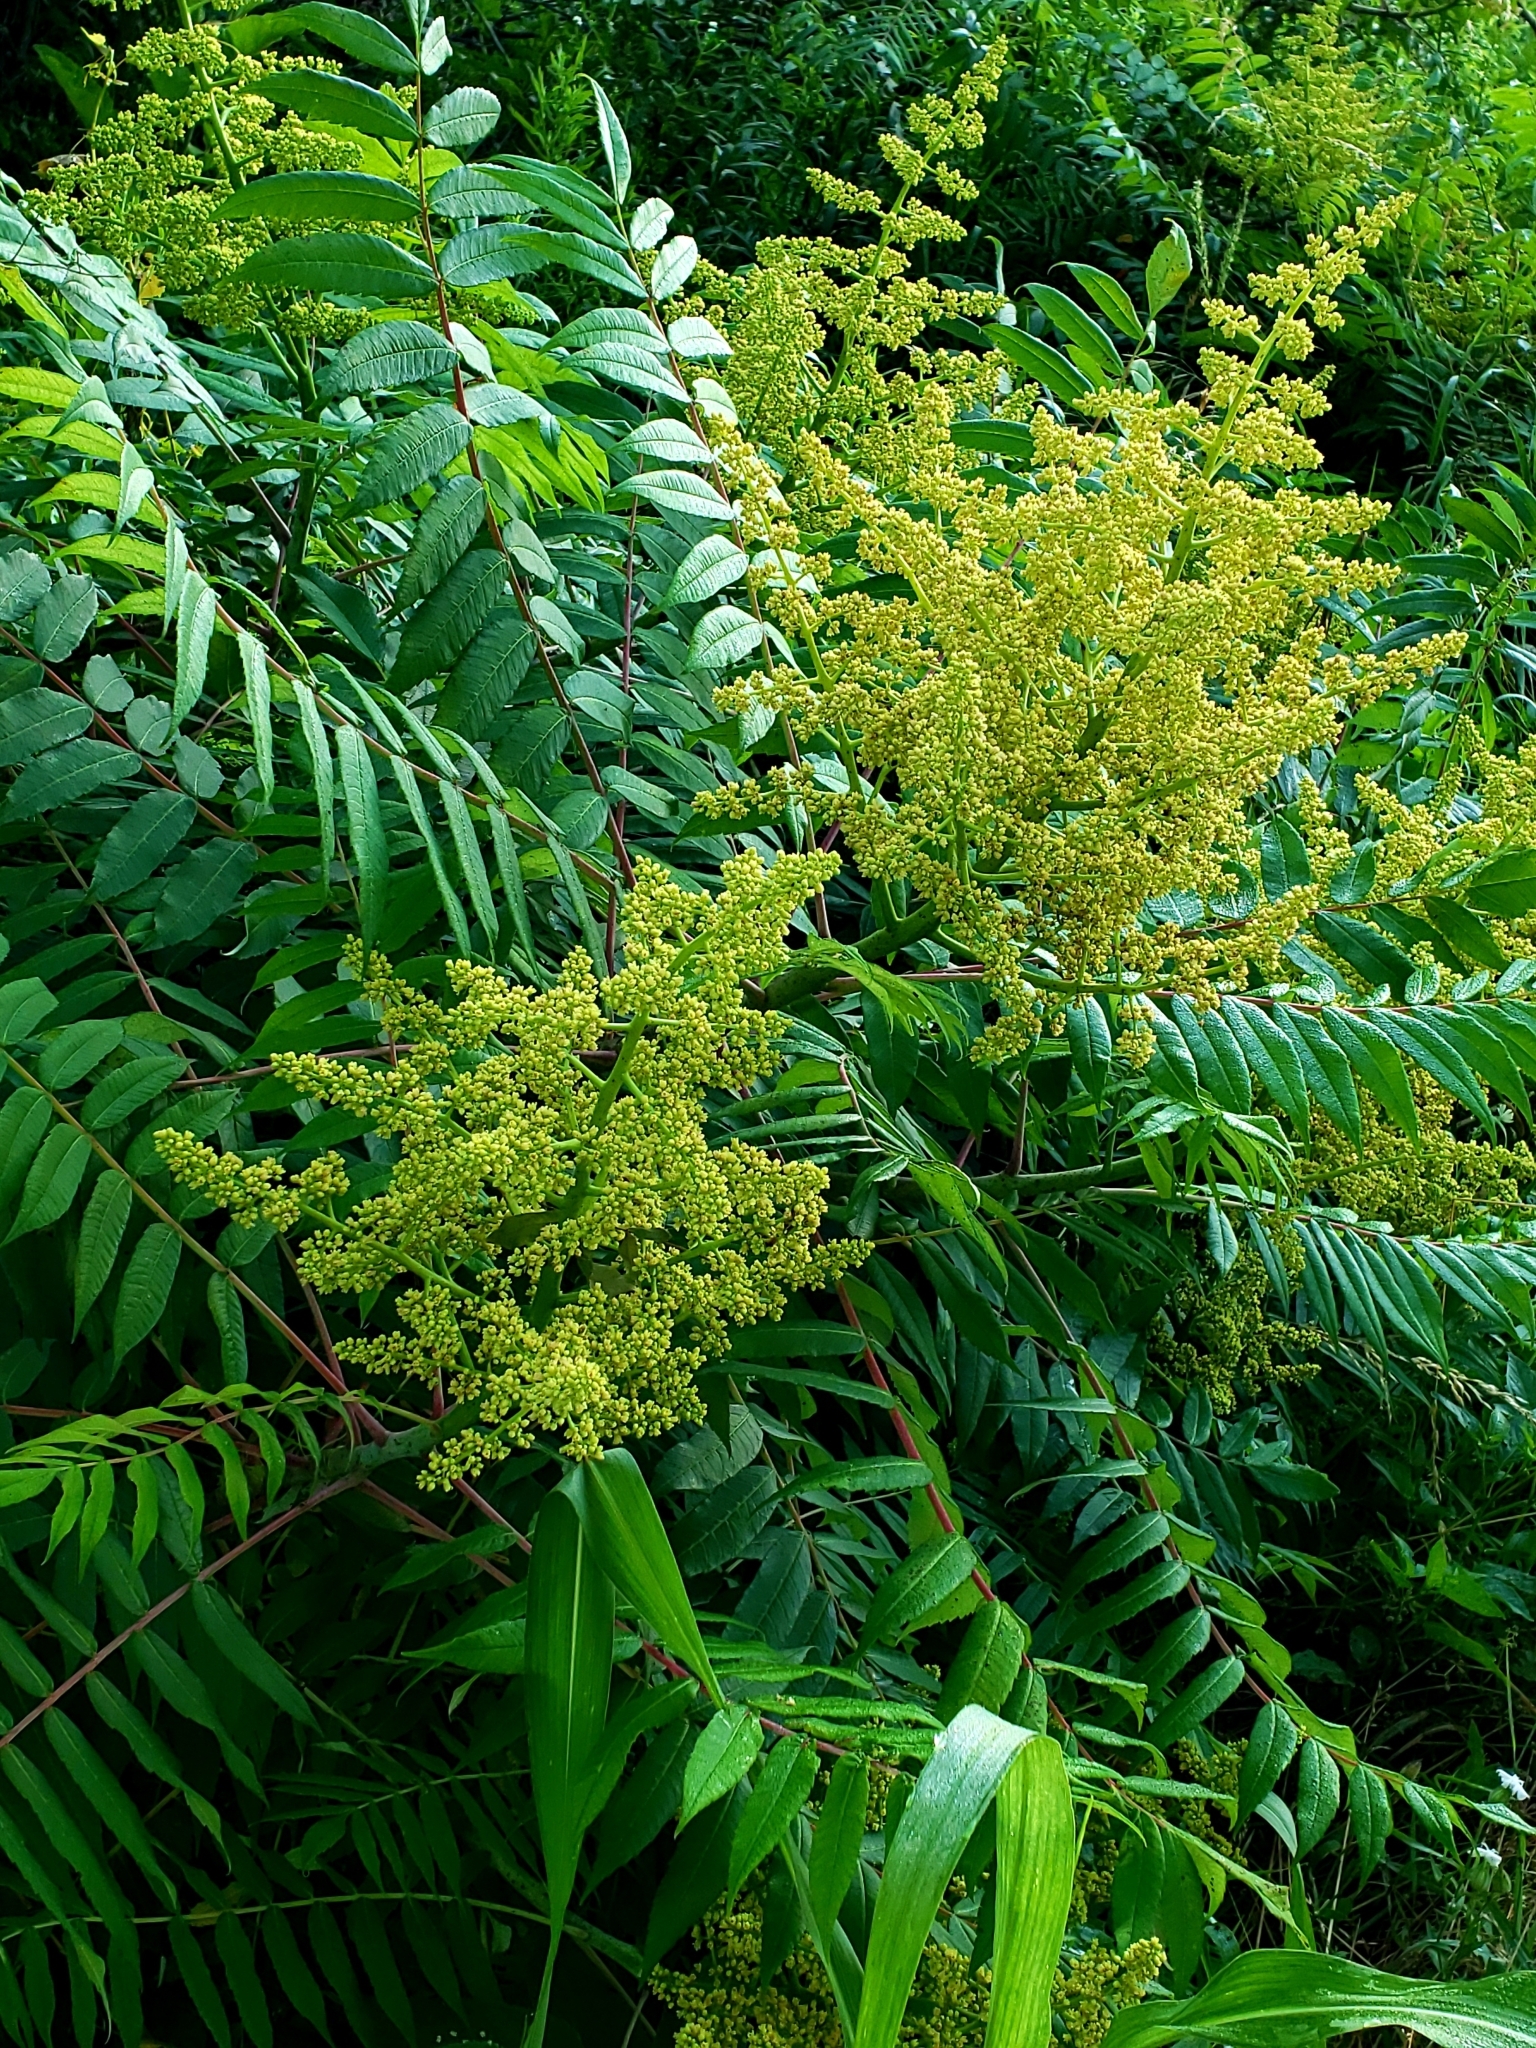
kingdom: Plantae
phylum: Tracheophyta
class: Magnoliopsida
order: Sapindales
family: Anacardiaceae
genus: Rhus
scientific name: Rhus glabra
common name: Scarlet sumac
